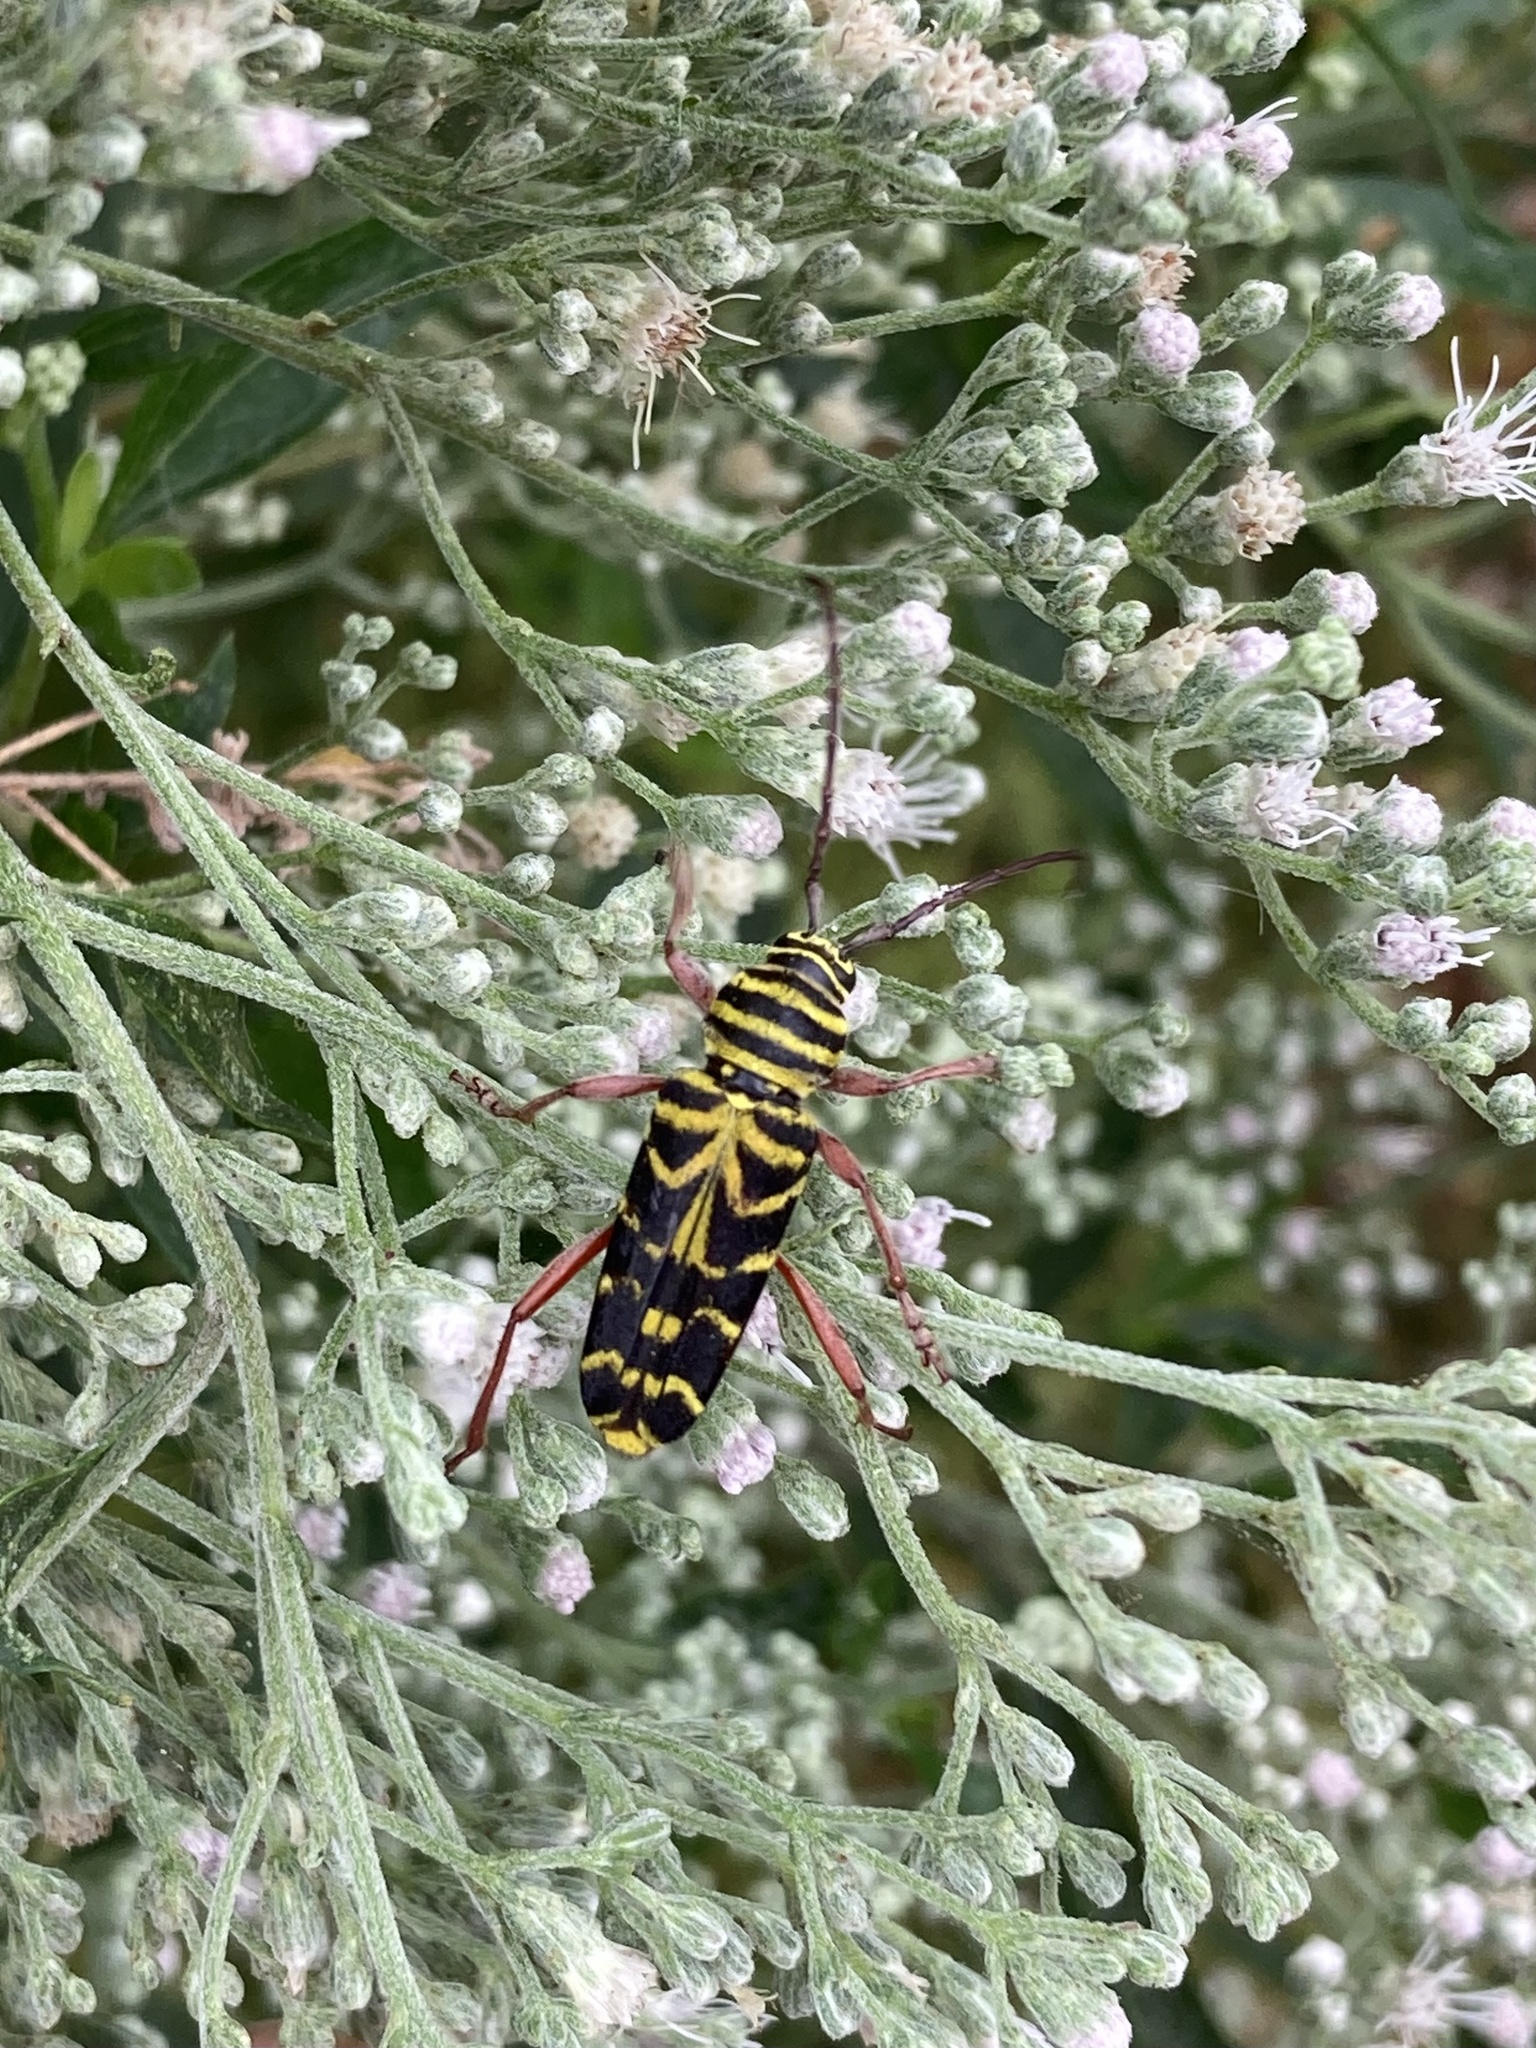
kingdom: Animalia
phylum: Arthropoda
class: Insecta
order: Coleoptera
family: Cerambycidae
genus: Megacyllene
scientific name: Megacyllene robiniae
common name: Locust borer
